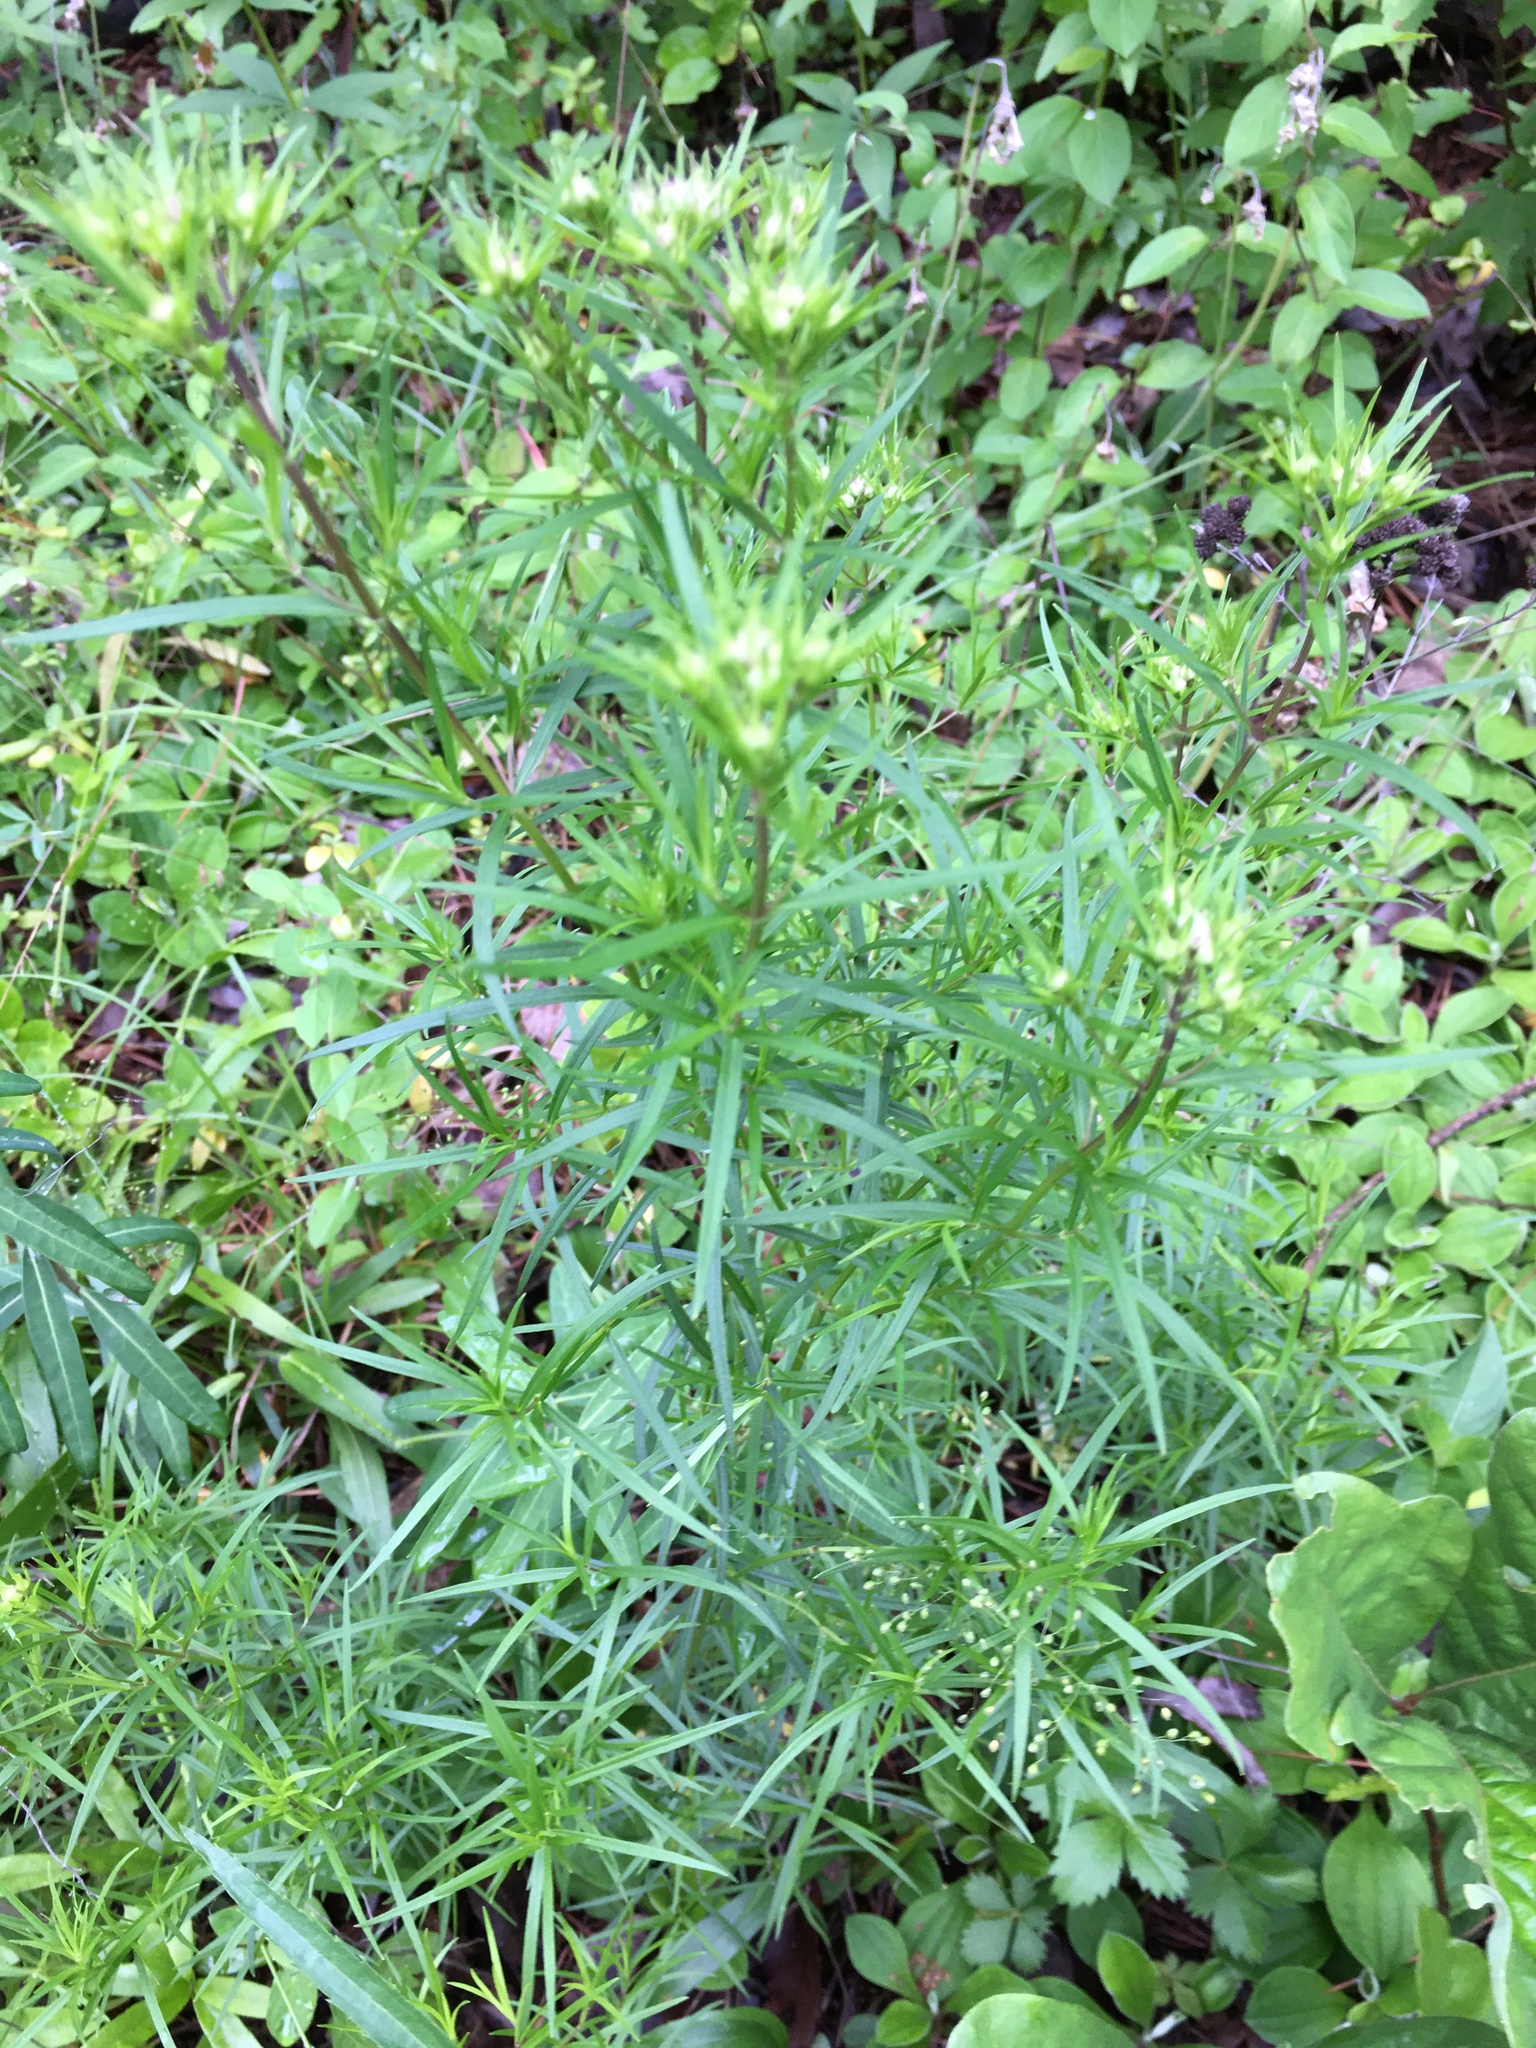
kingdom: Plantae
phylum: Tracheophyta
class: Magnoliopsida
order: Lamiales
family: Lamiaceae
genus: Pycnanthemum
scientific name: Pycnanthemum tenuifolium
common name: Narrow-leaf mountain-mint
